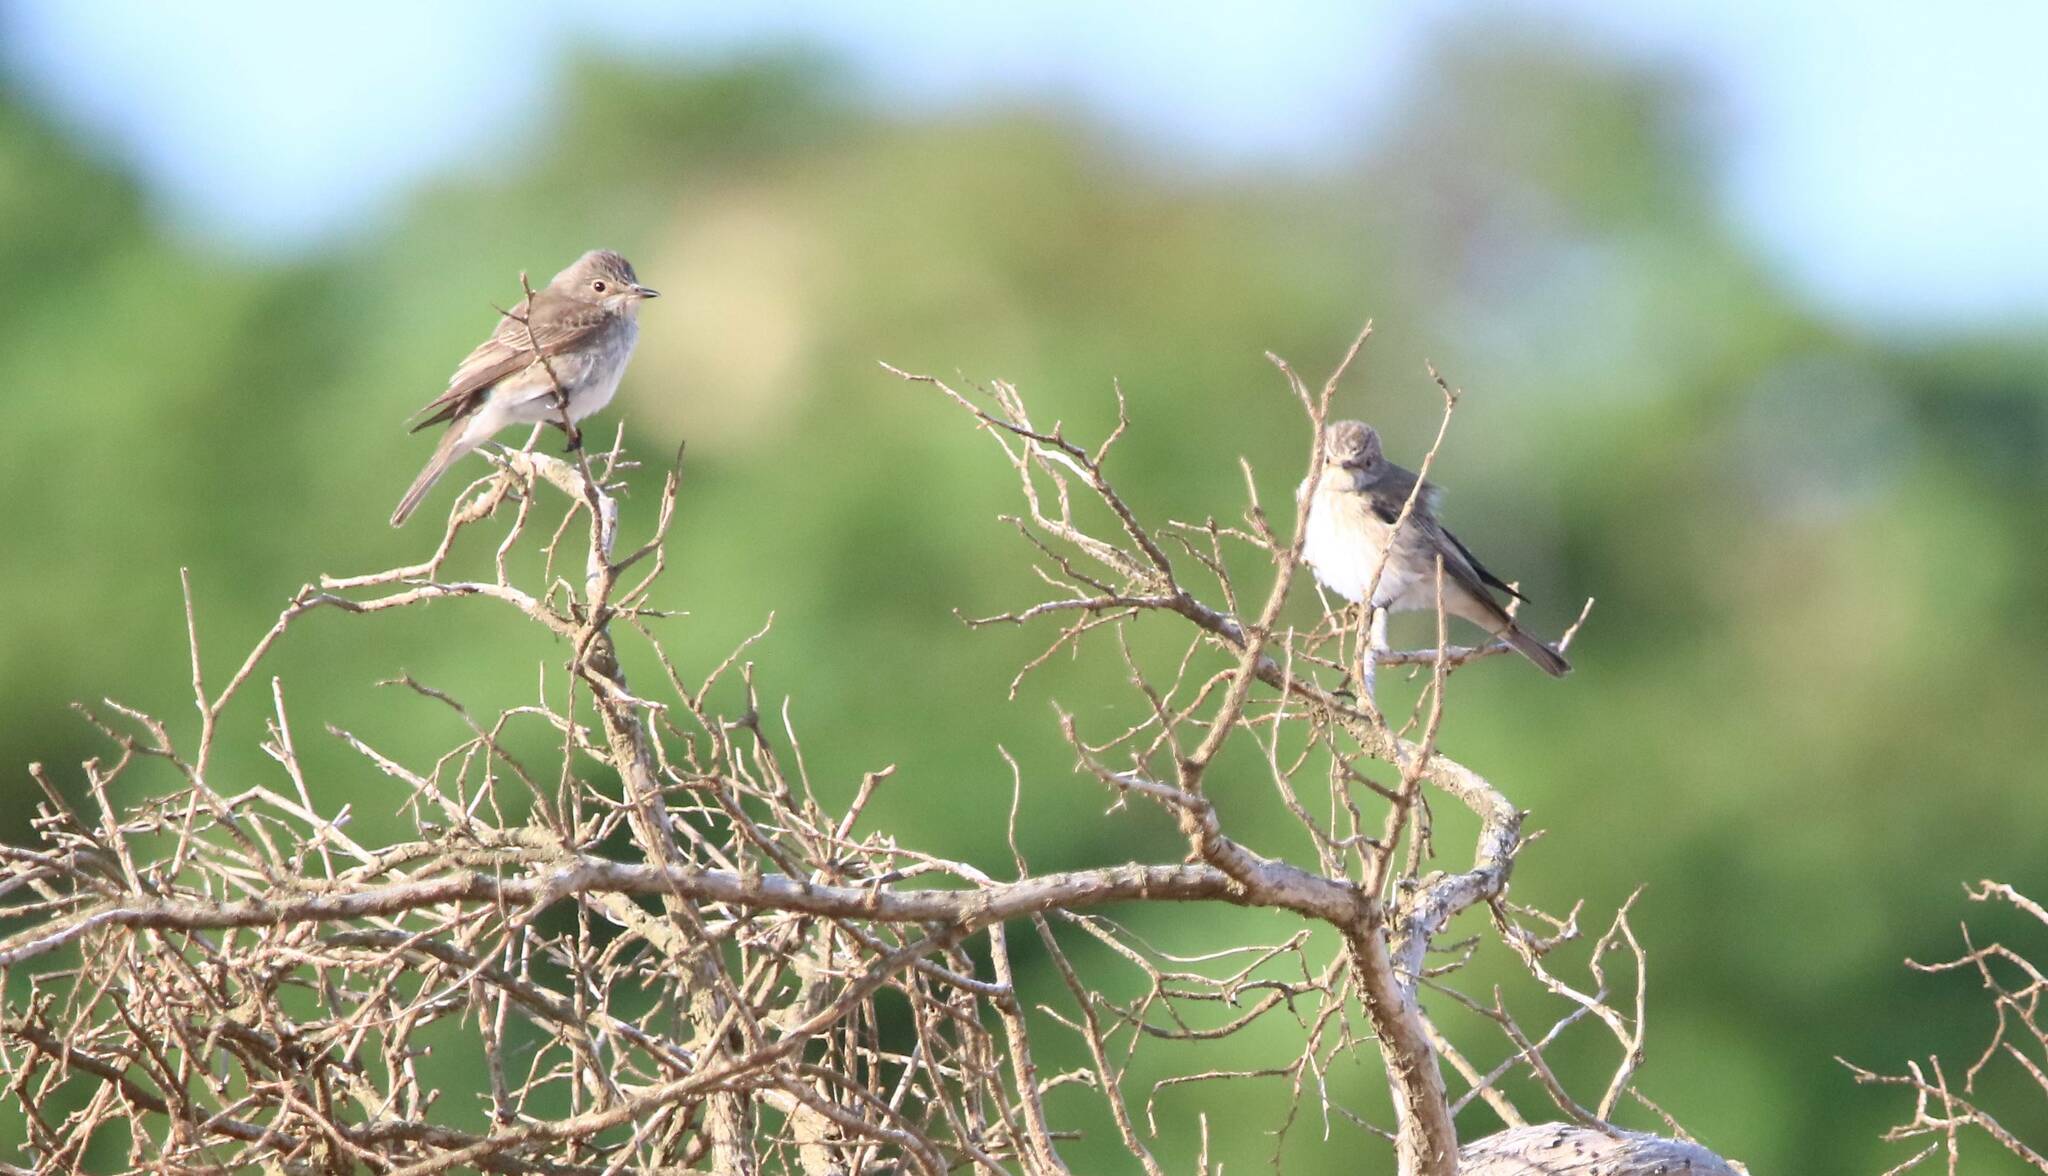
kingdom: Animalia
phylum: Chordata
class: Aves
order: Passeriformes
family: Muscicapidae
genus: Muscicapa
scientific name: Muscicapa striata
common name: Spotted flycatcher
